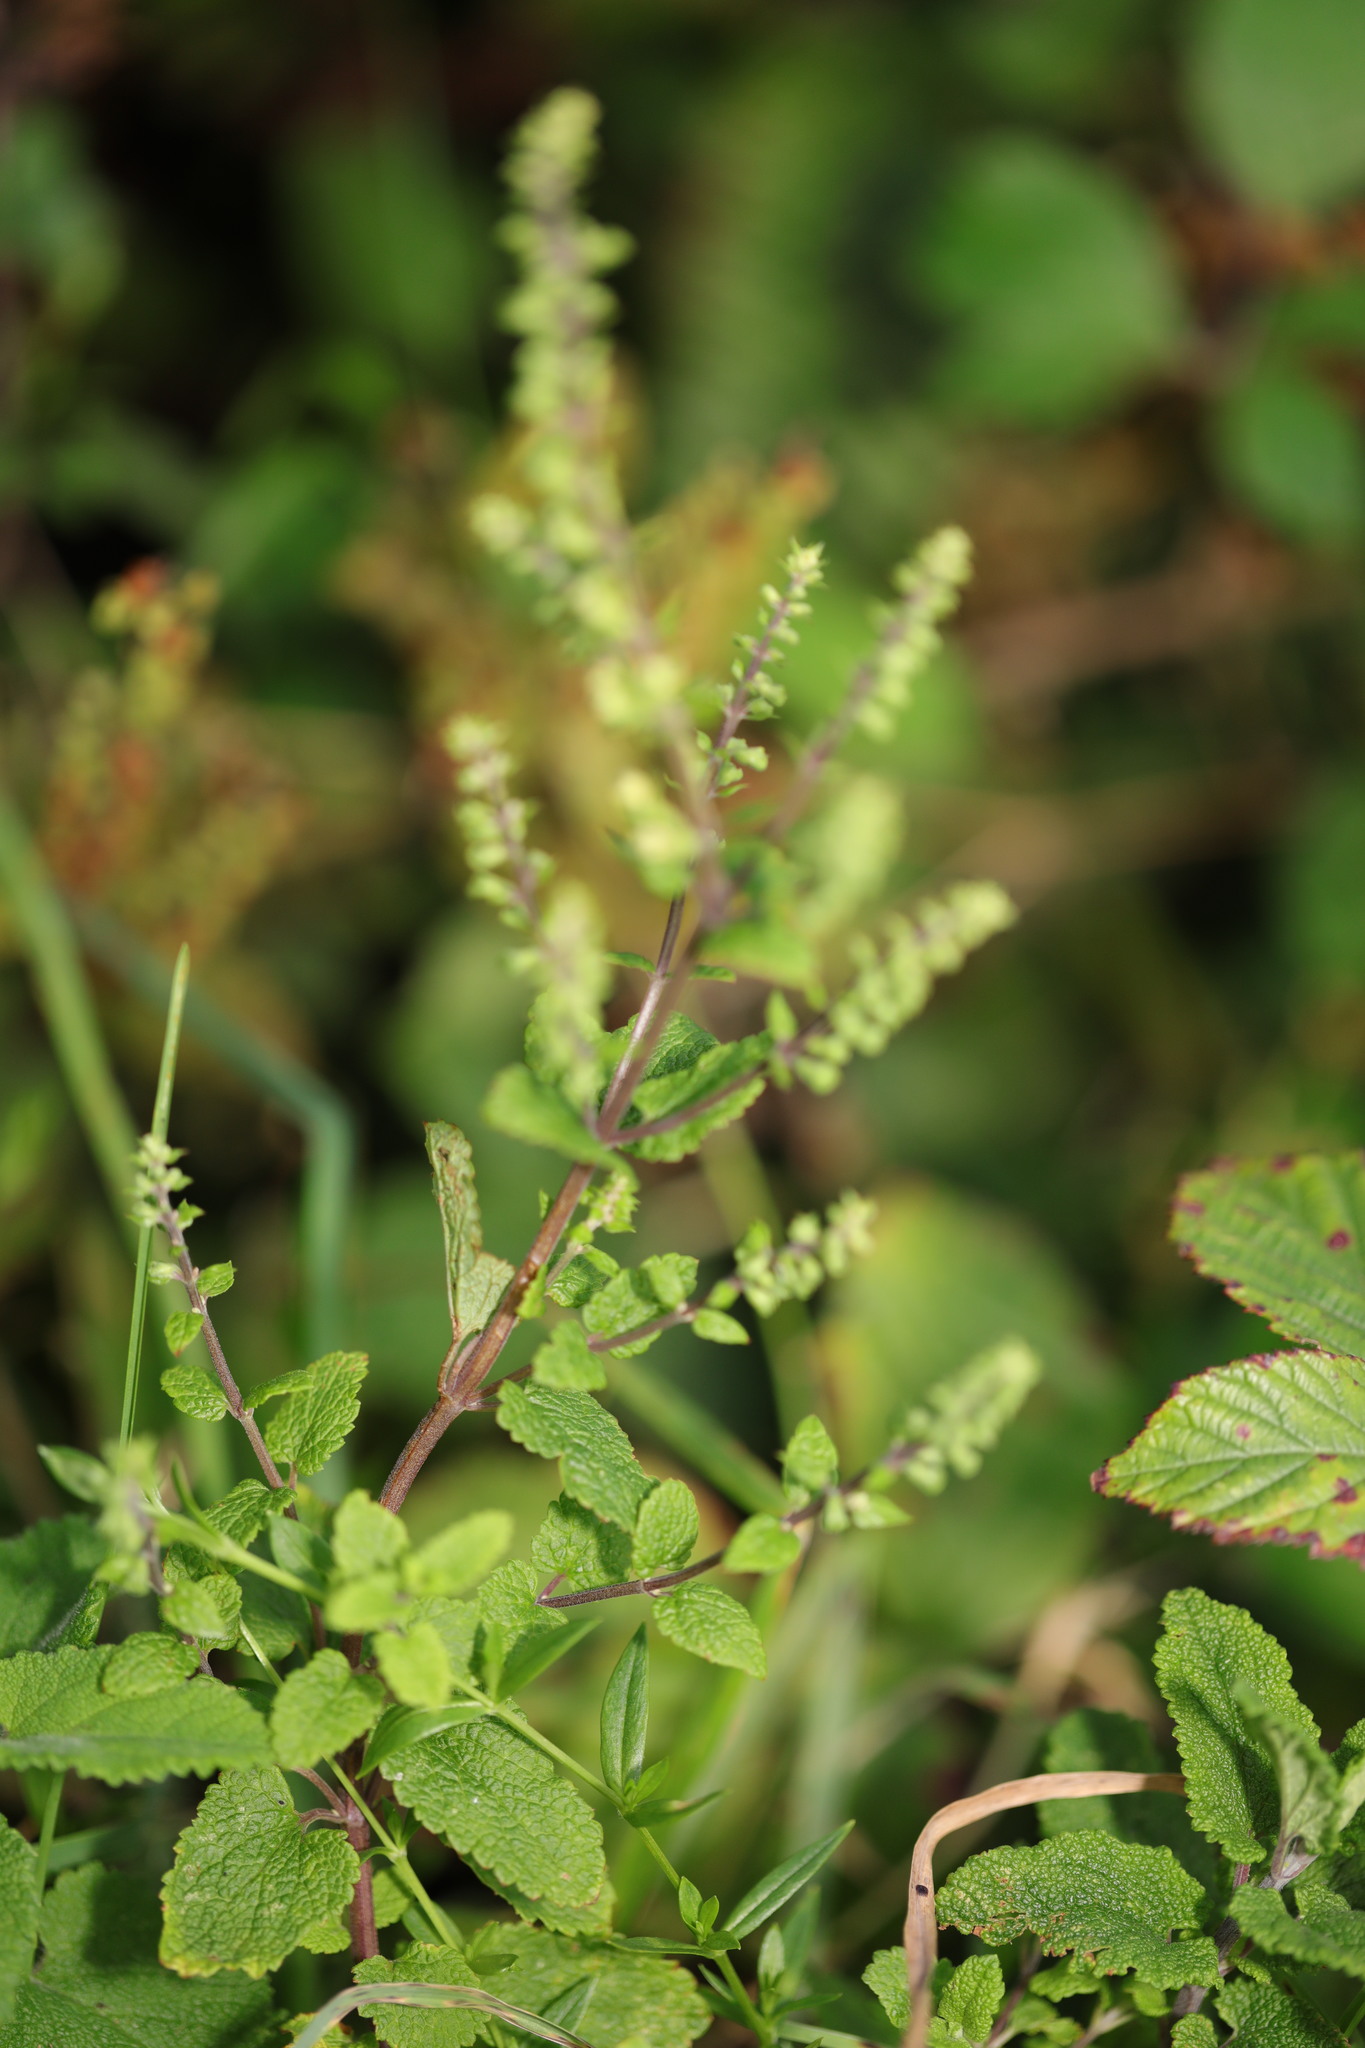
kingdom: Plantae
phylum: Tracheophyta
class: Magnoliopsida
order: Lamiales
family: Lamiaceae
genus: Teucrium
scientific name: Teucrium scorodonia
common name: Woodland germander
